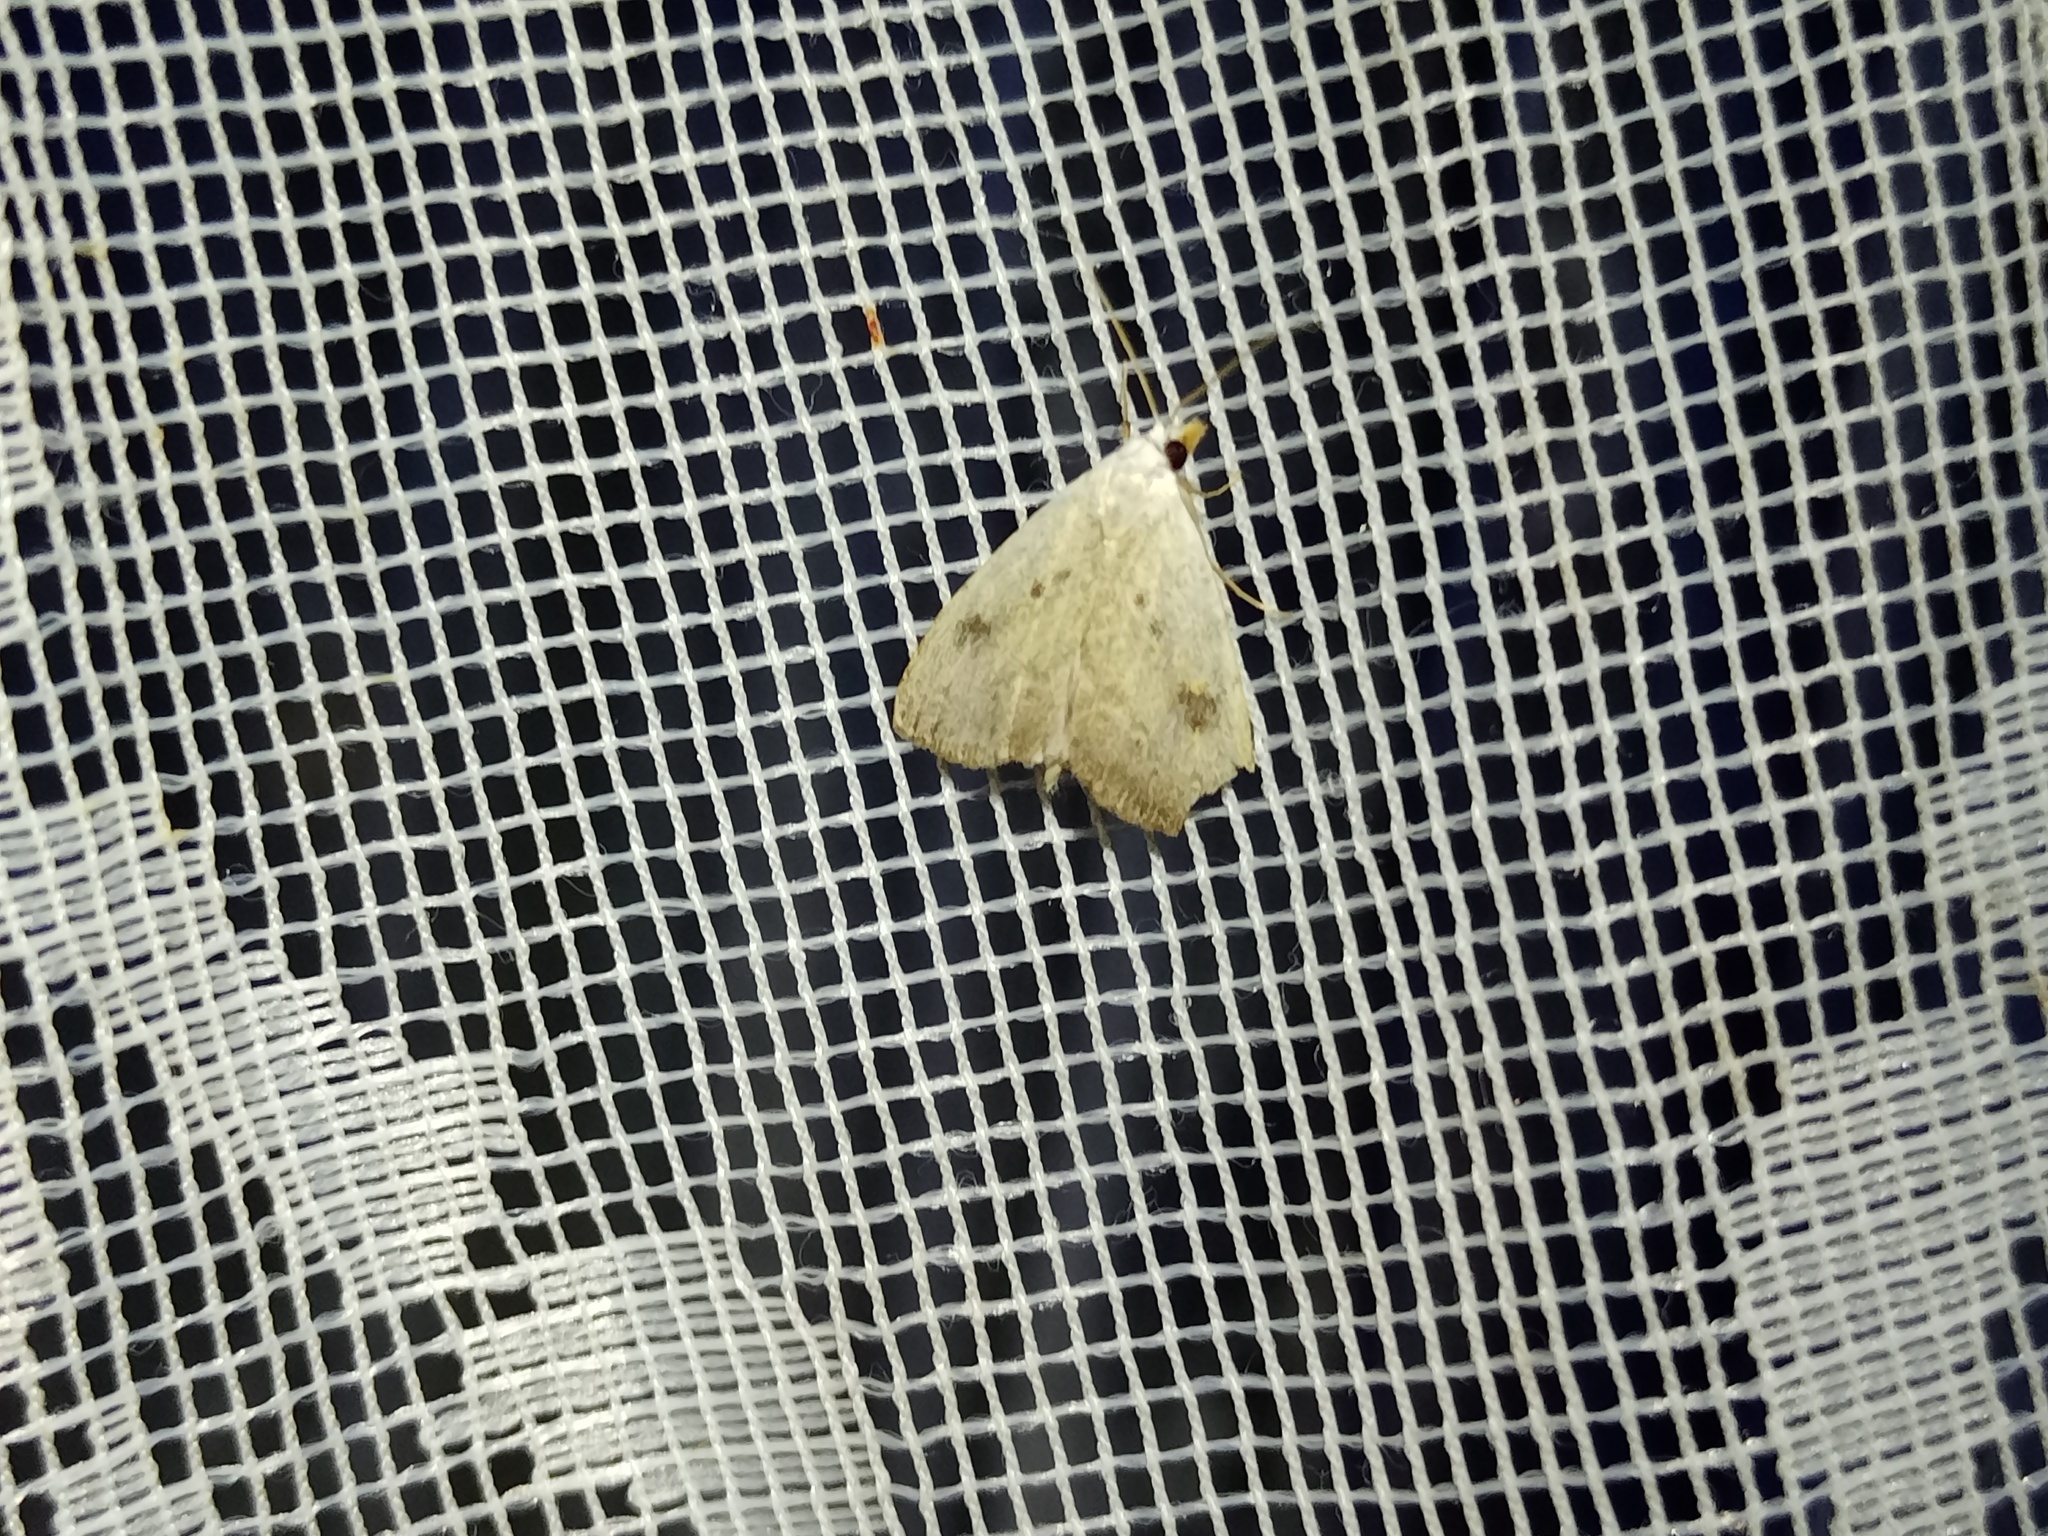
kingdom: Animalia
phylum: Arthropoda
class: Insecta
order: Lepidoptera
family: Erebidae
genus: Rivula
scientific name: Rivula sericealis
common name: Straw dot
